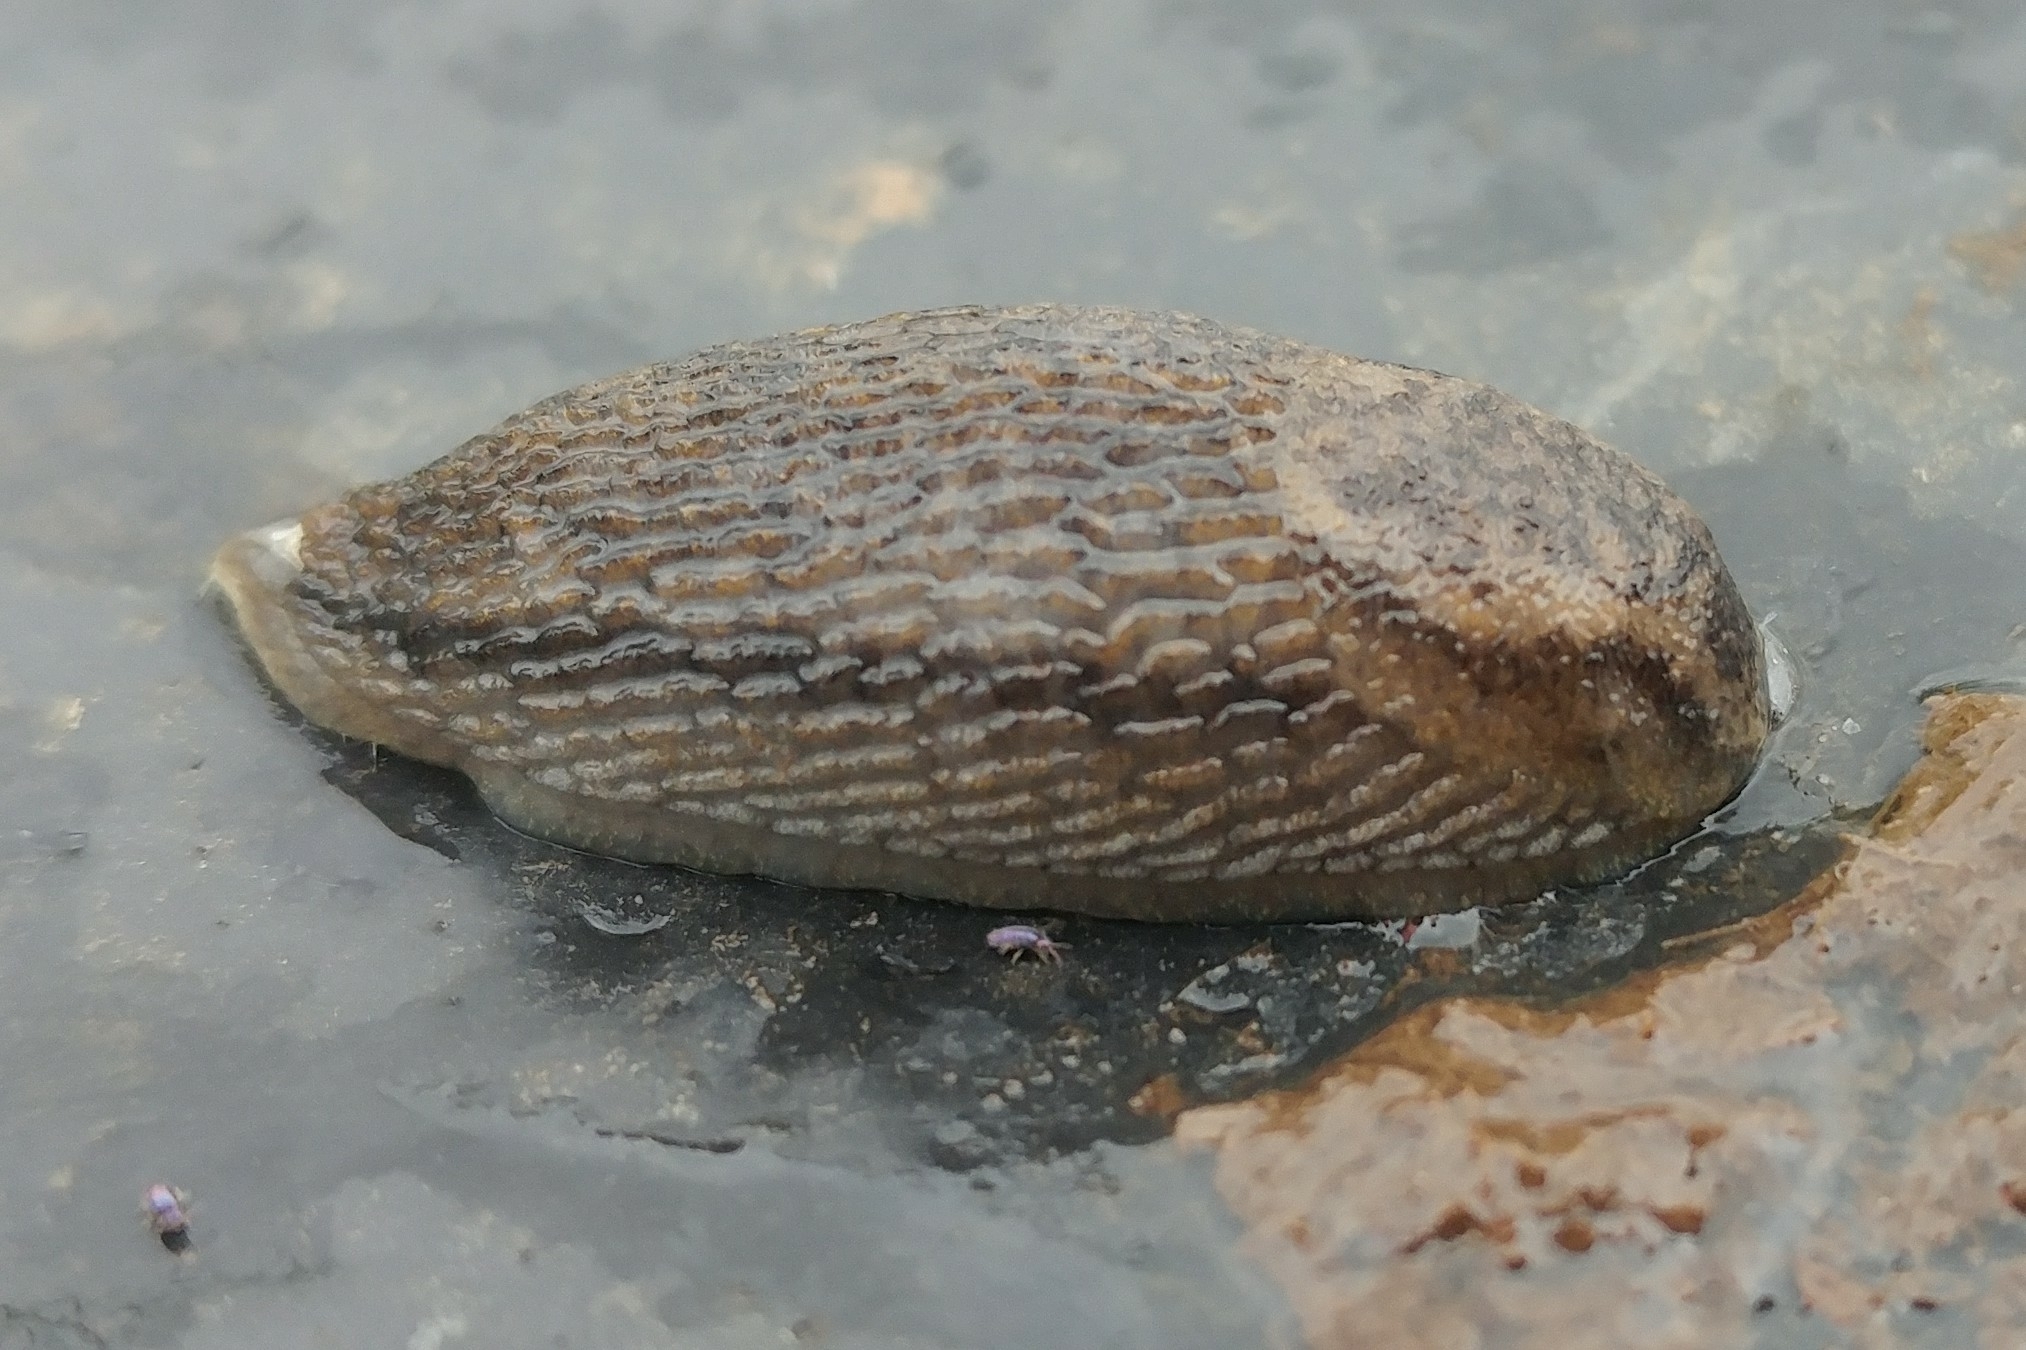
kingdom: Animalia
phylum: Mollusca
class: Gastropoda
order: Stylommatophora
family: Arionidae
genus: Arion
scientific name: Arion fasciatus
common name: Orange-banded arion
